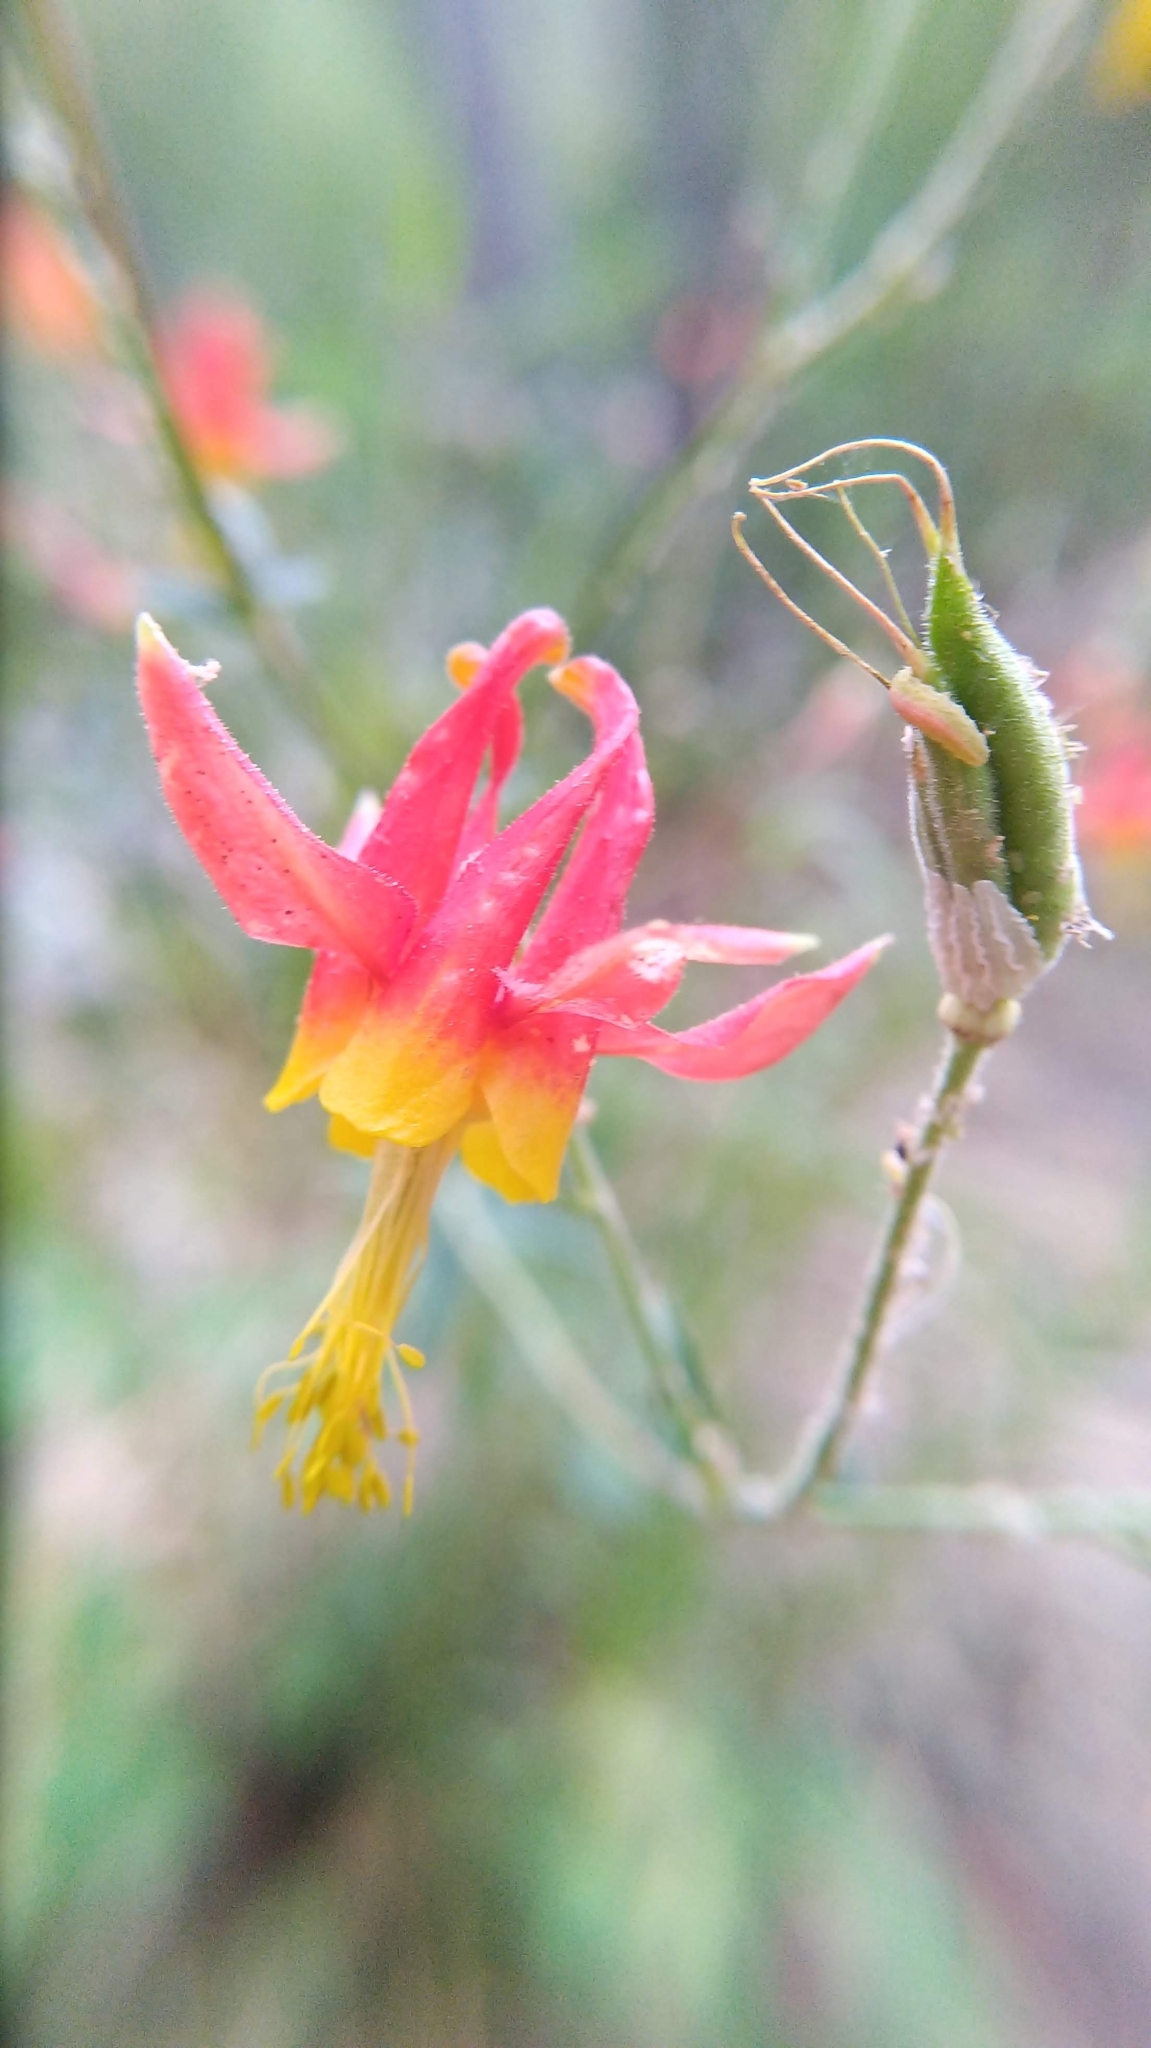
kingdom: Plantae
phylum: Tracheophyta
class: Magnoliopsida
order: Ranunculales
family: Ranunculaceae
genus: Aquilegia
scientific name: Aquilegia formosa
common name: Sitka columbine
